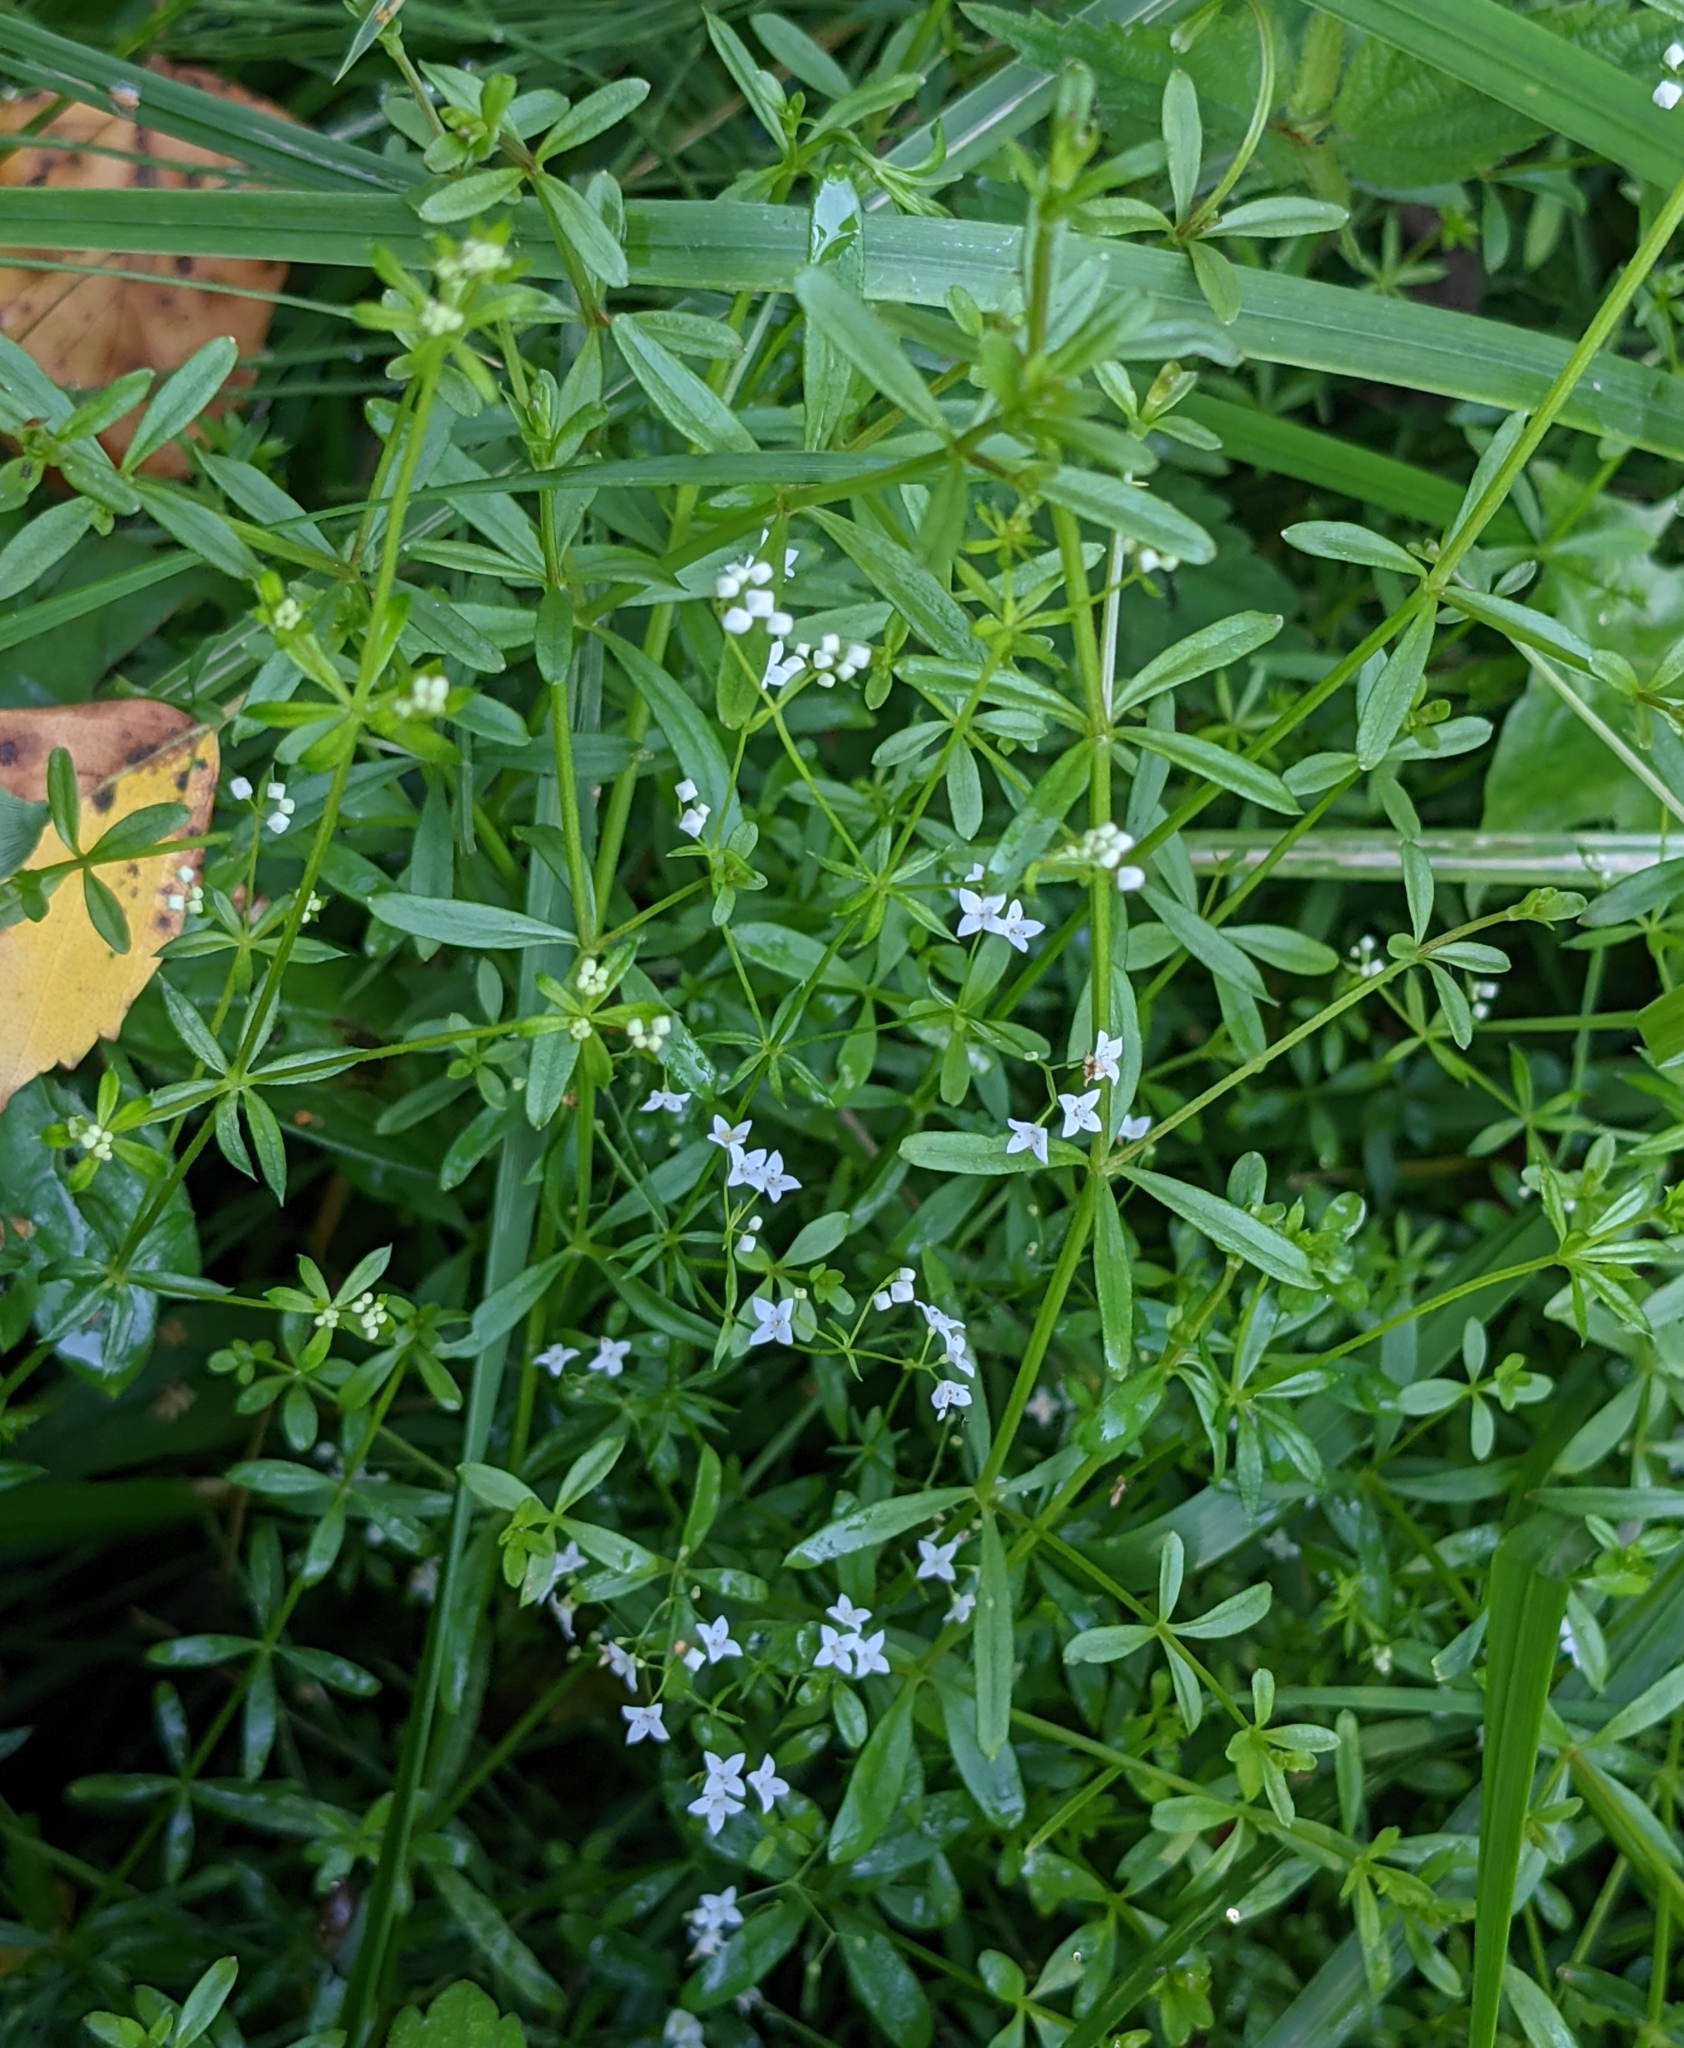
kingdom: Plantae
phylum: Tracheophyta
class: Magnoliopsida
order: Gentianales
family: Rubiaceae
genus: Galium
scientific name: Galium palustre
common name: Common marsh-bedstraw
